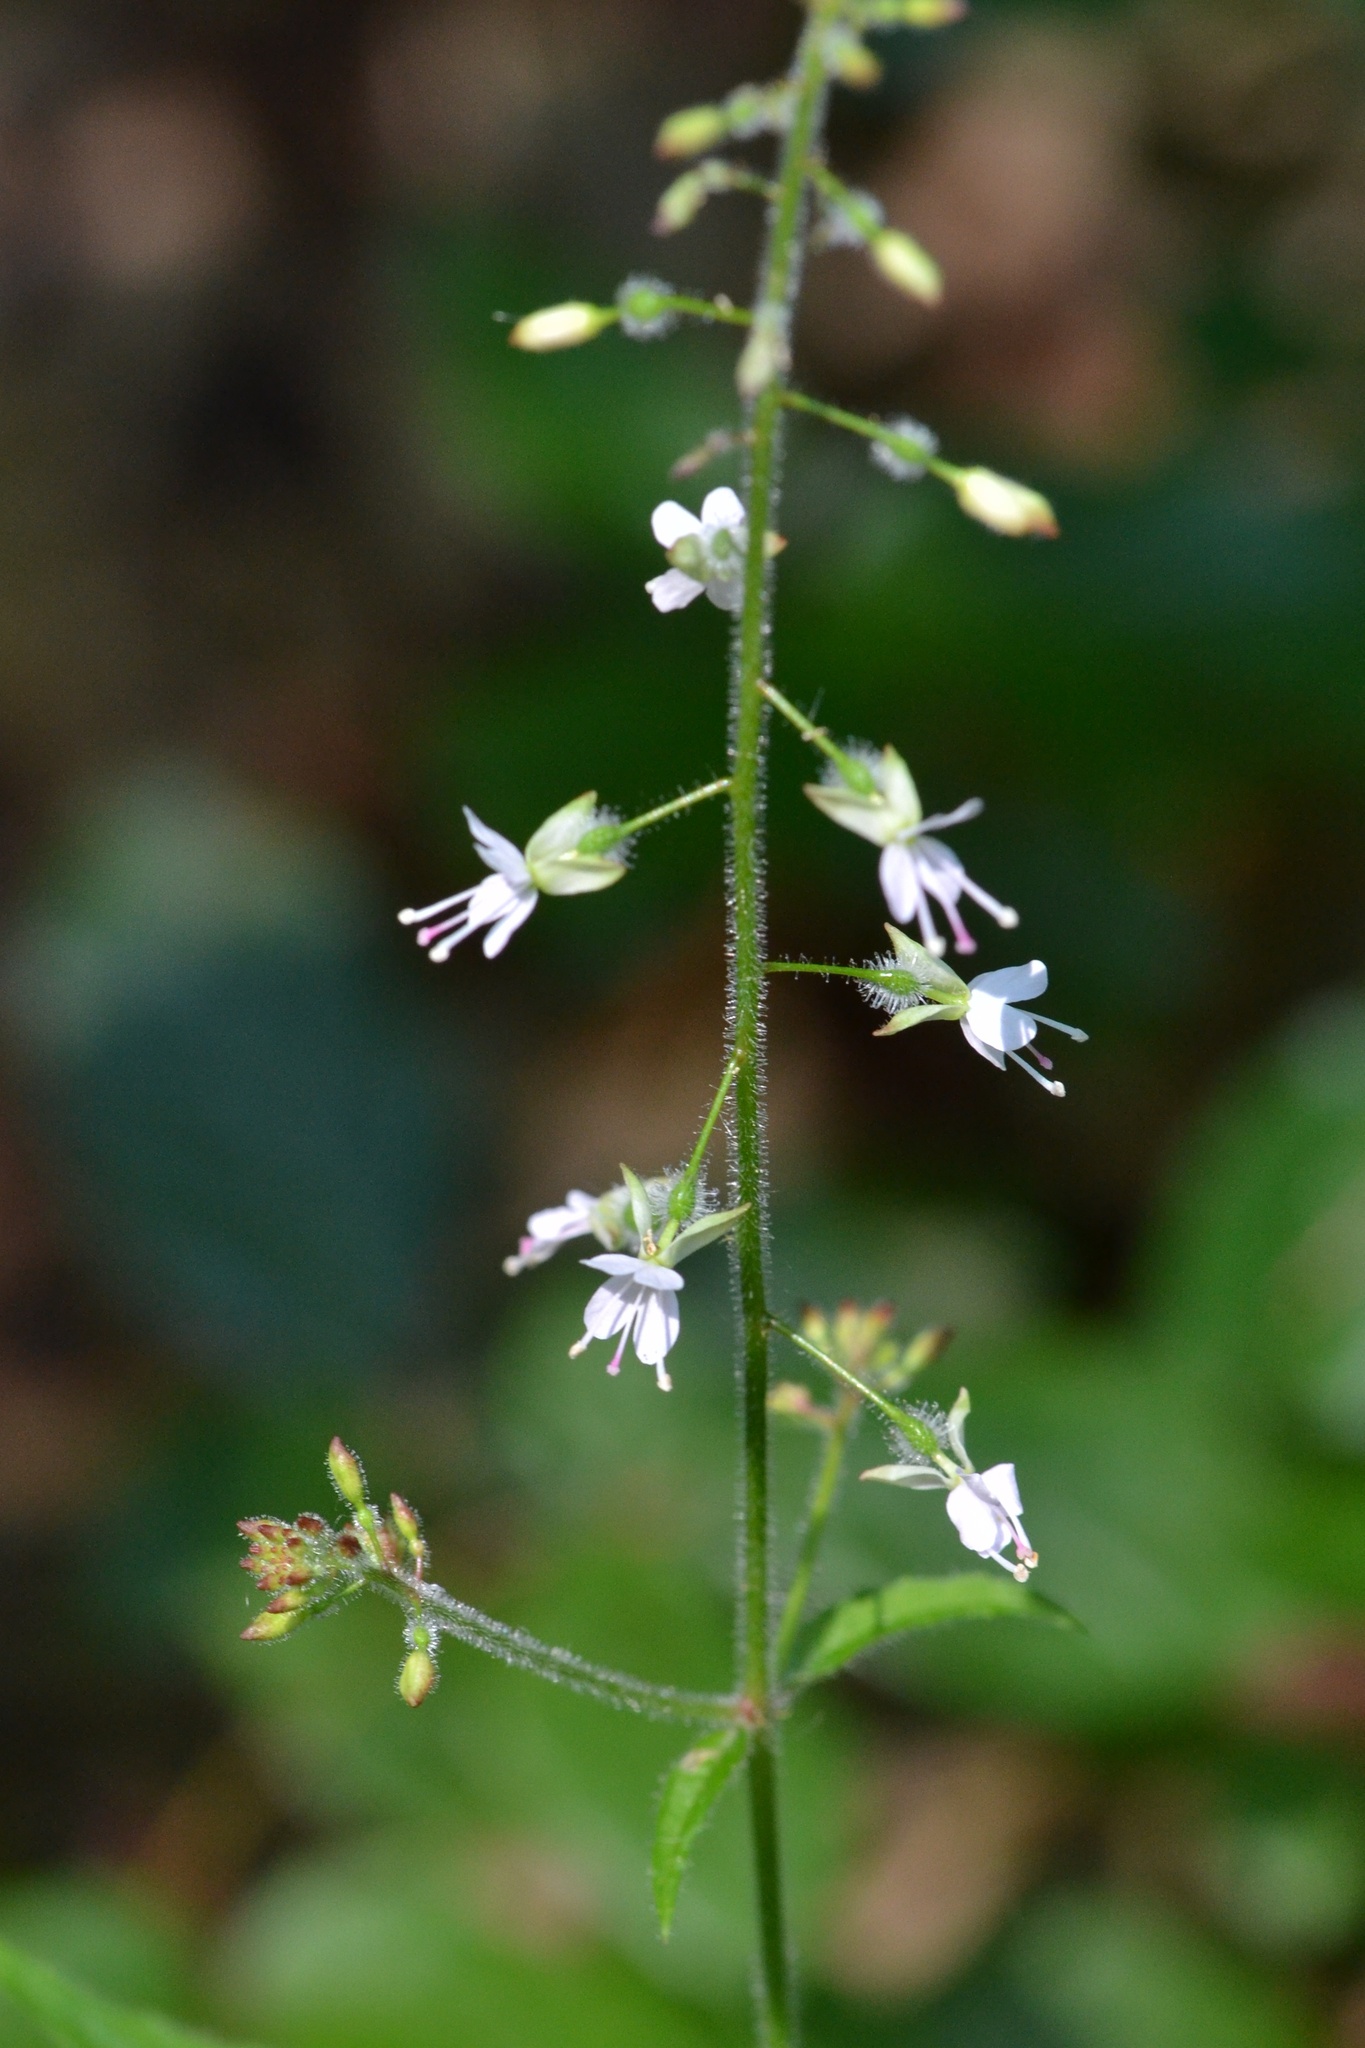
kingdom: Plantae
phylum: Tracheophyta
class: Magnoliopsida
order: Myrtales
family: Onagraceae
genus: Circaea
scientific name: Circaea lutetiana
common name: Enchanter's-nightshade
